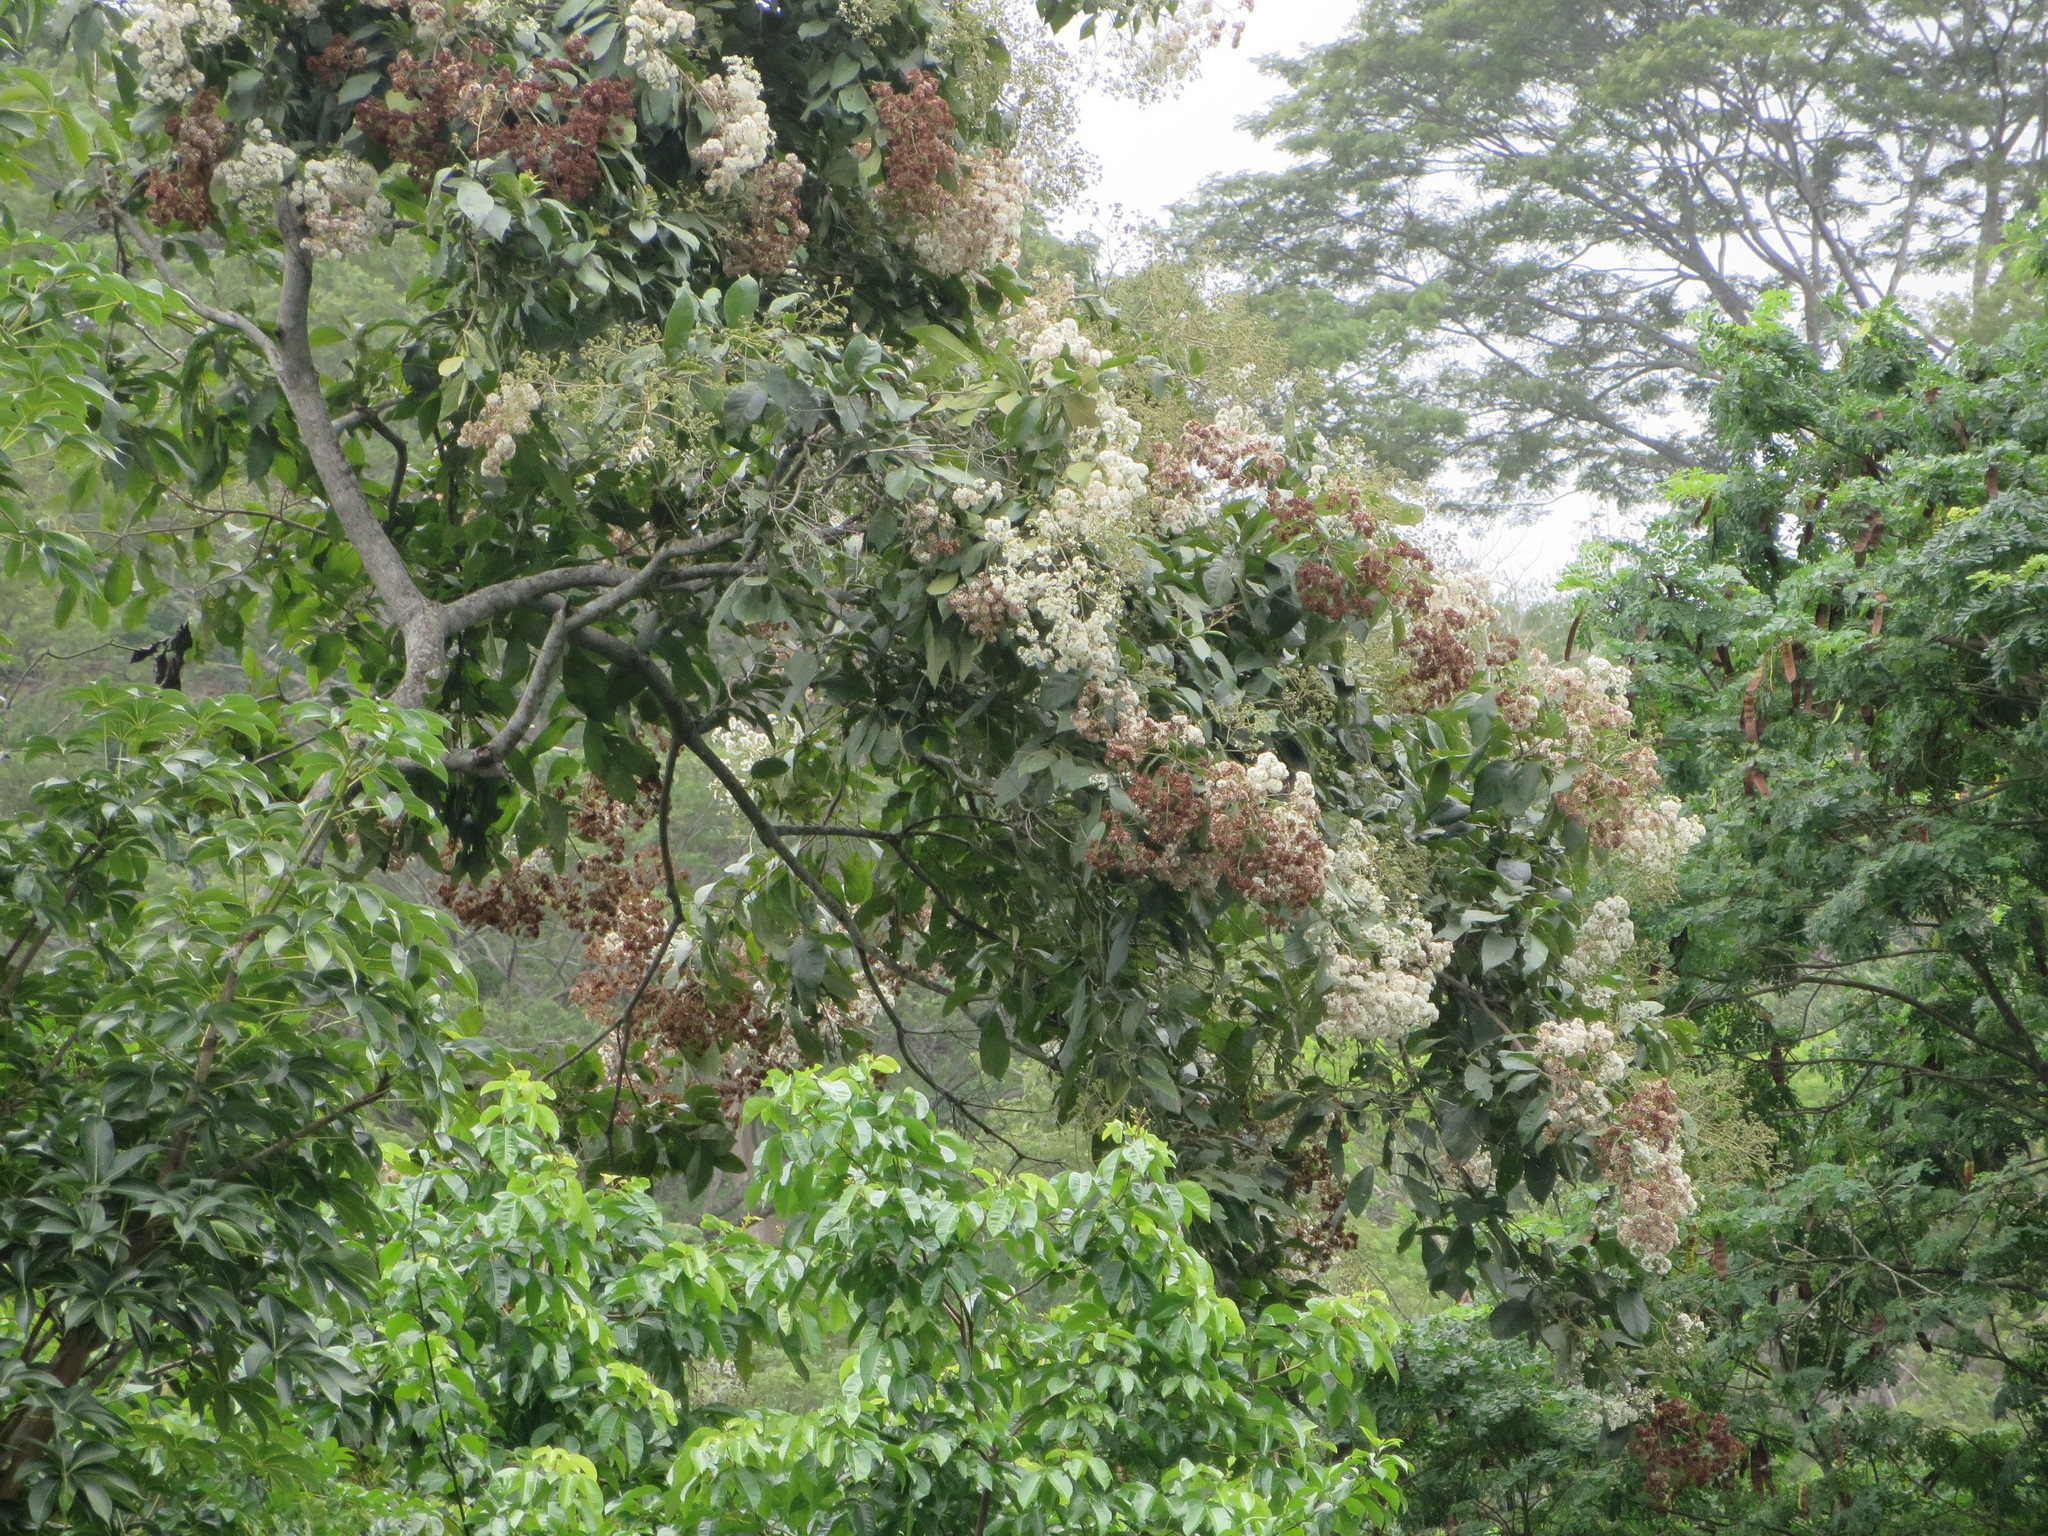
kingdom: Plantae
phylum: Tracheophyta
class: Magnoliopsida
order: Boraginales
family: Cordiaceae
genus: Cordia
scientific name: Cordia alliodora
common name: Spanish elm
